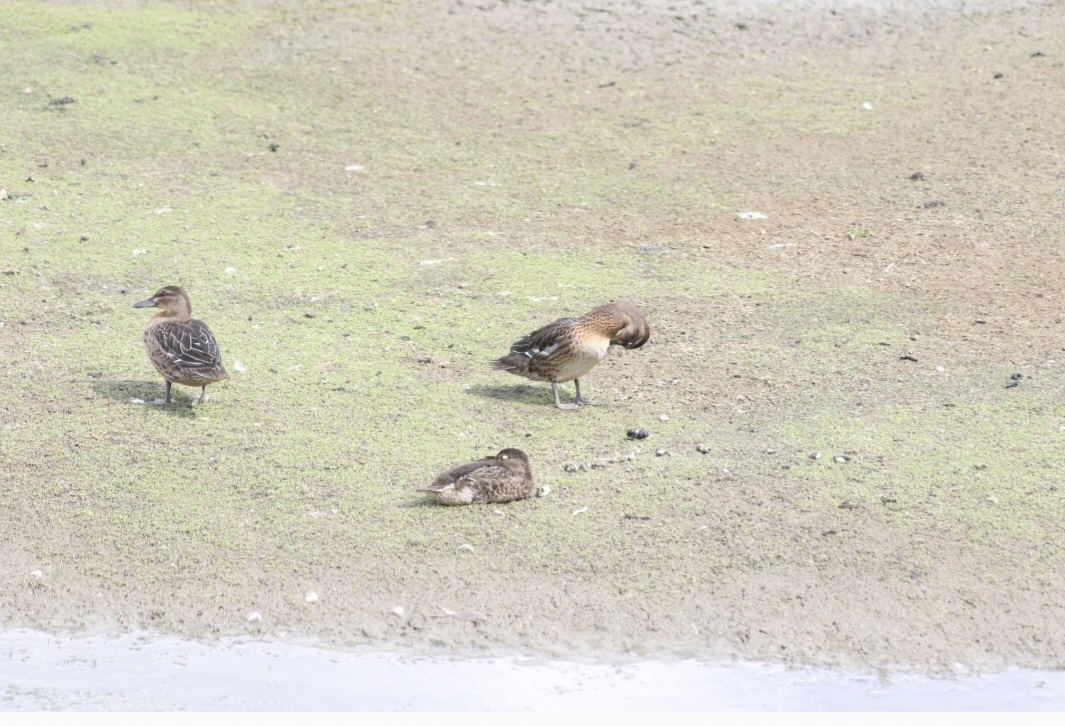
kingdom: Animalia
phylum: Chordata
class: Aves
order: Anseriformes
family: Anatidae
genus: Spatula
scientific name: Spatula querquedula
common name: Garganey
